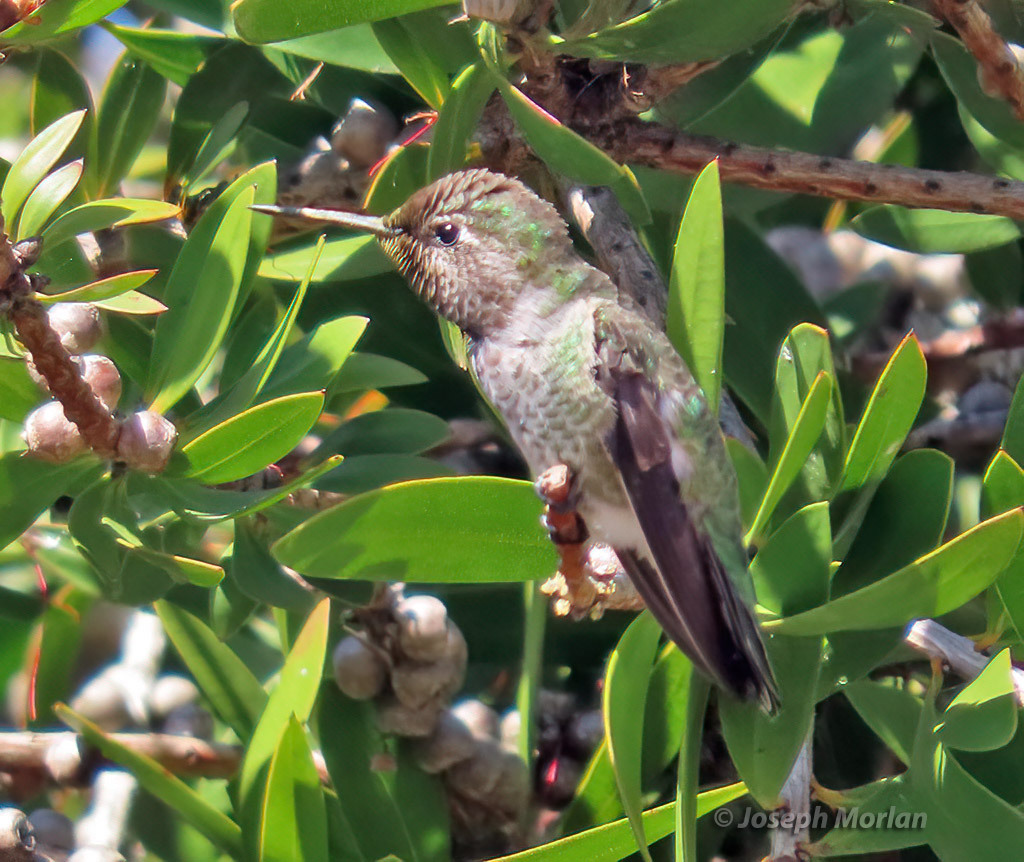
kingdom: Animalia
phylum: Chordata
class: Aves
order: Apodiformes
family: Trochilidae
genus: Calypte
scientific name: Calypte anna
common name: Anna's hummingbird
